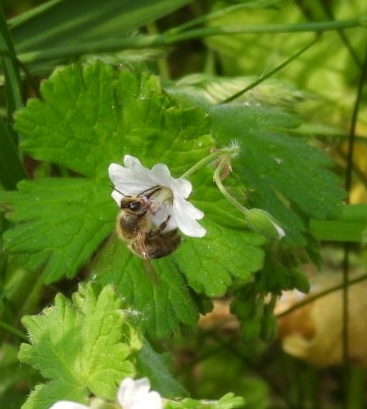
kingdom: Animalia
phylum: Arthropoda
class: Insecta
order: Hymenoptera
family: Apidae
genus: Apis
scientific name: Apis mellifera
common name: Honey bee
